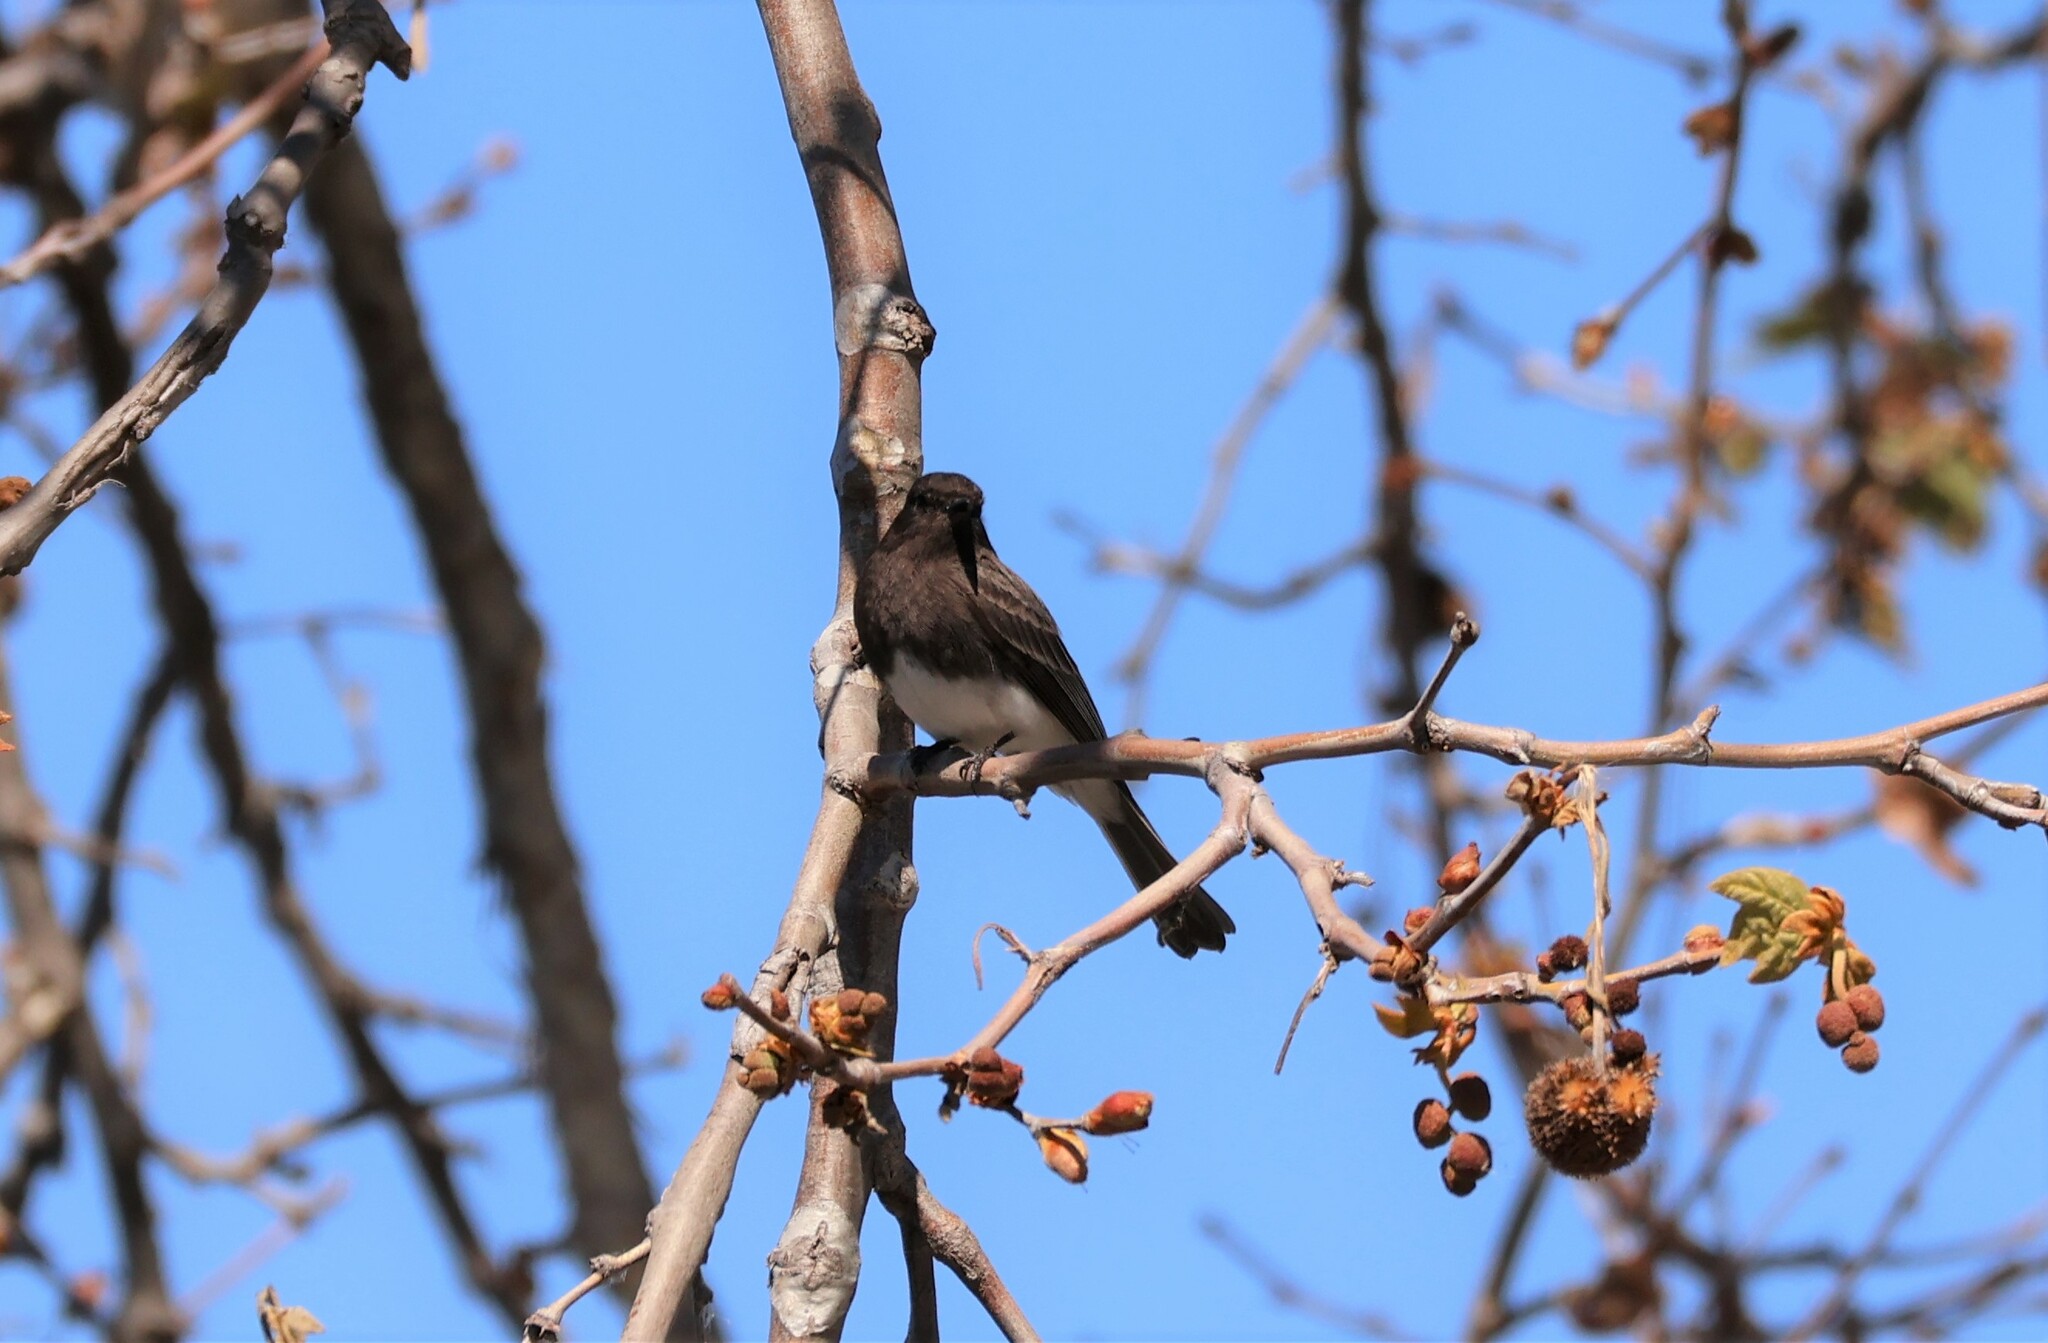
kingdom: Animalia
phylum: Chordata
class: Aves
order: Passeriformes
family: Tyrannidae
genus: Sayornis
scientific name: Sayornis nigricans
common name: Black phoebe
